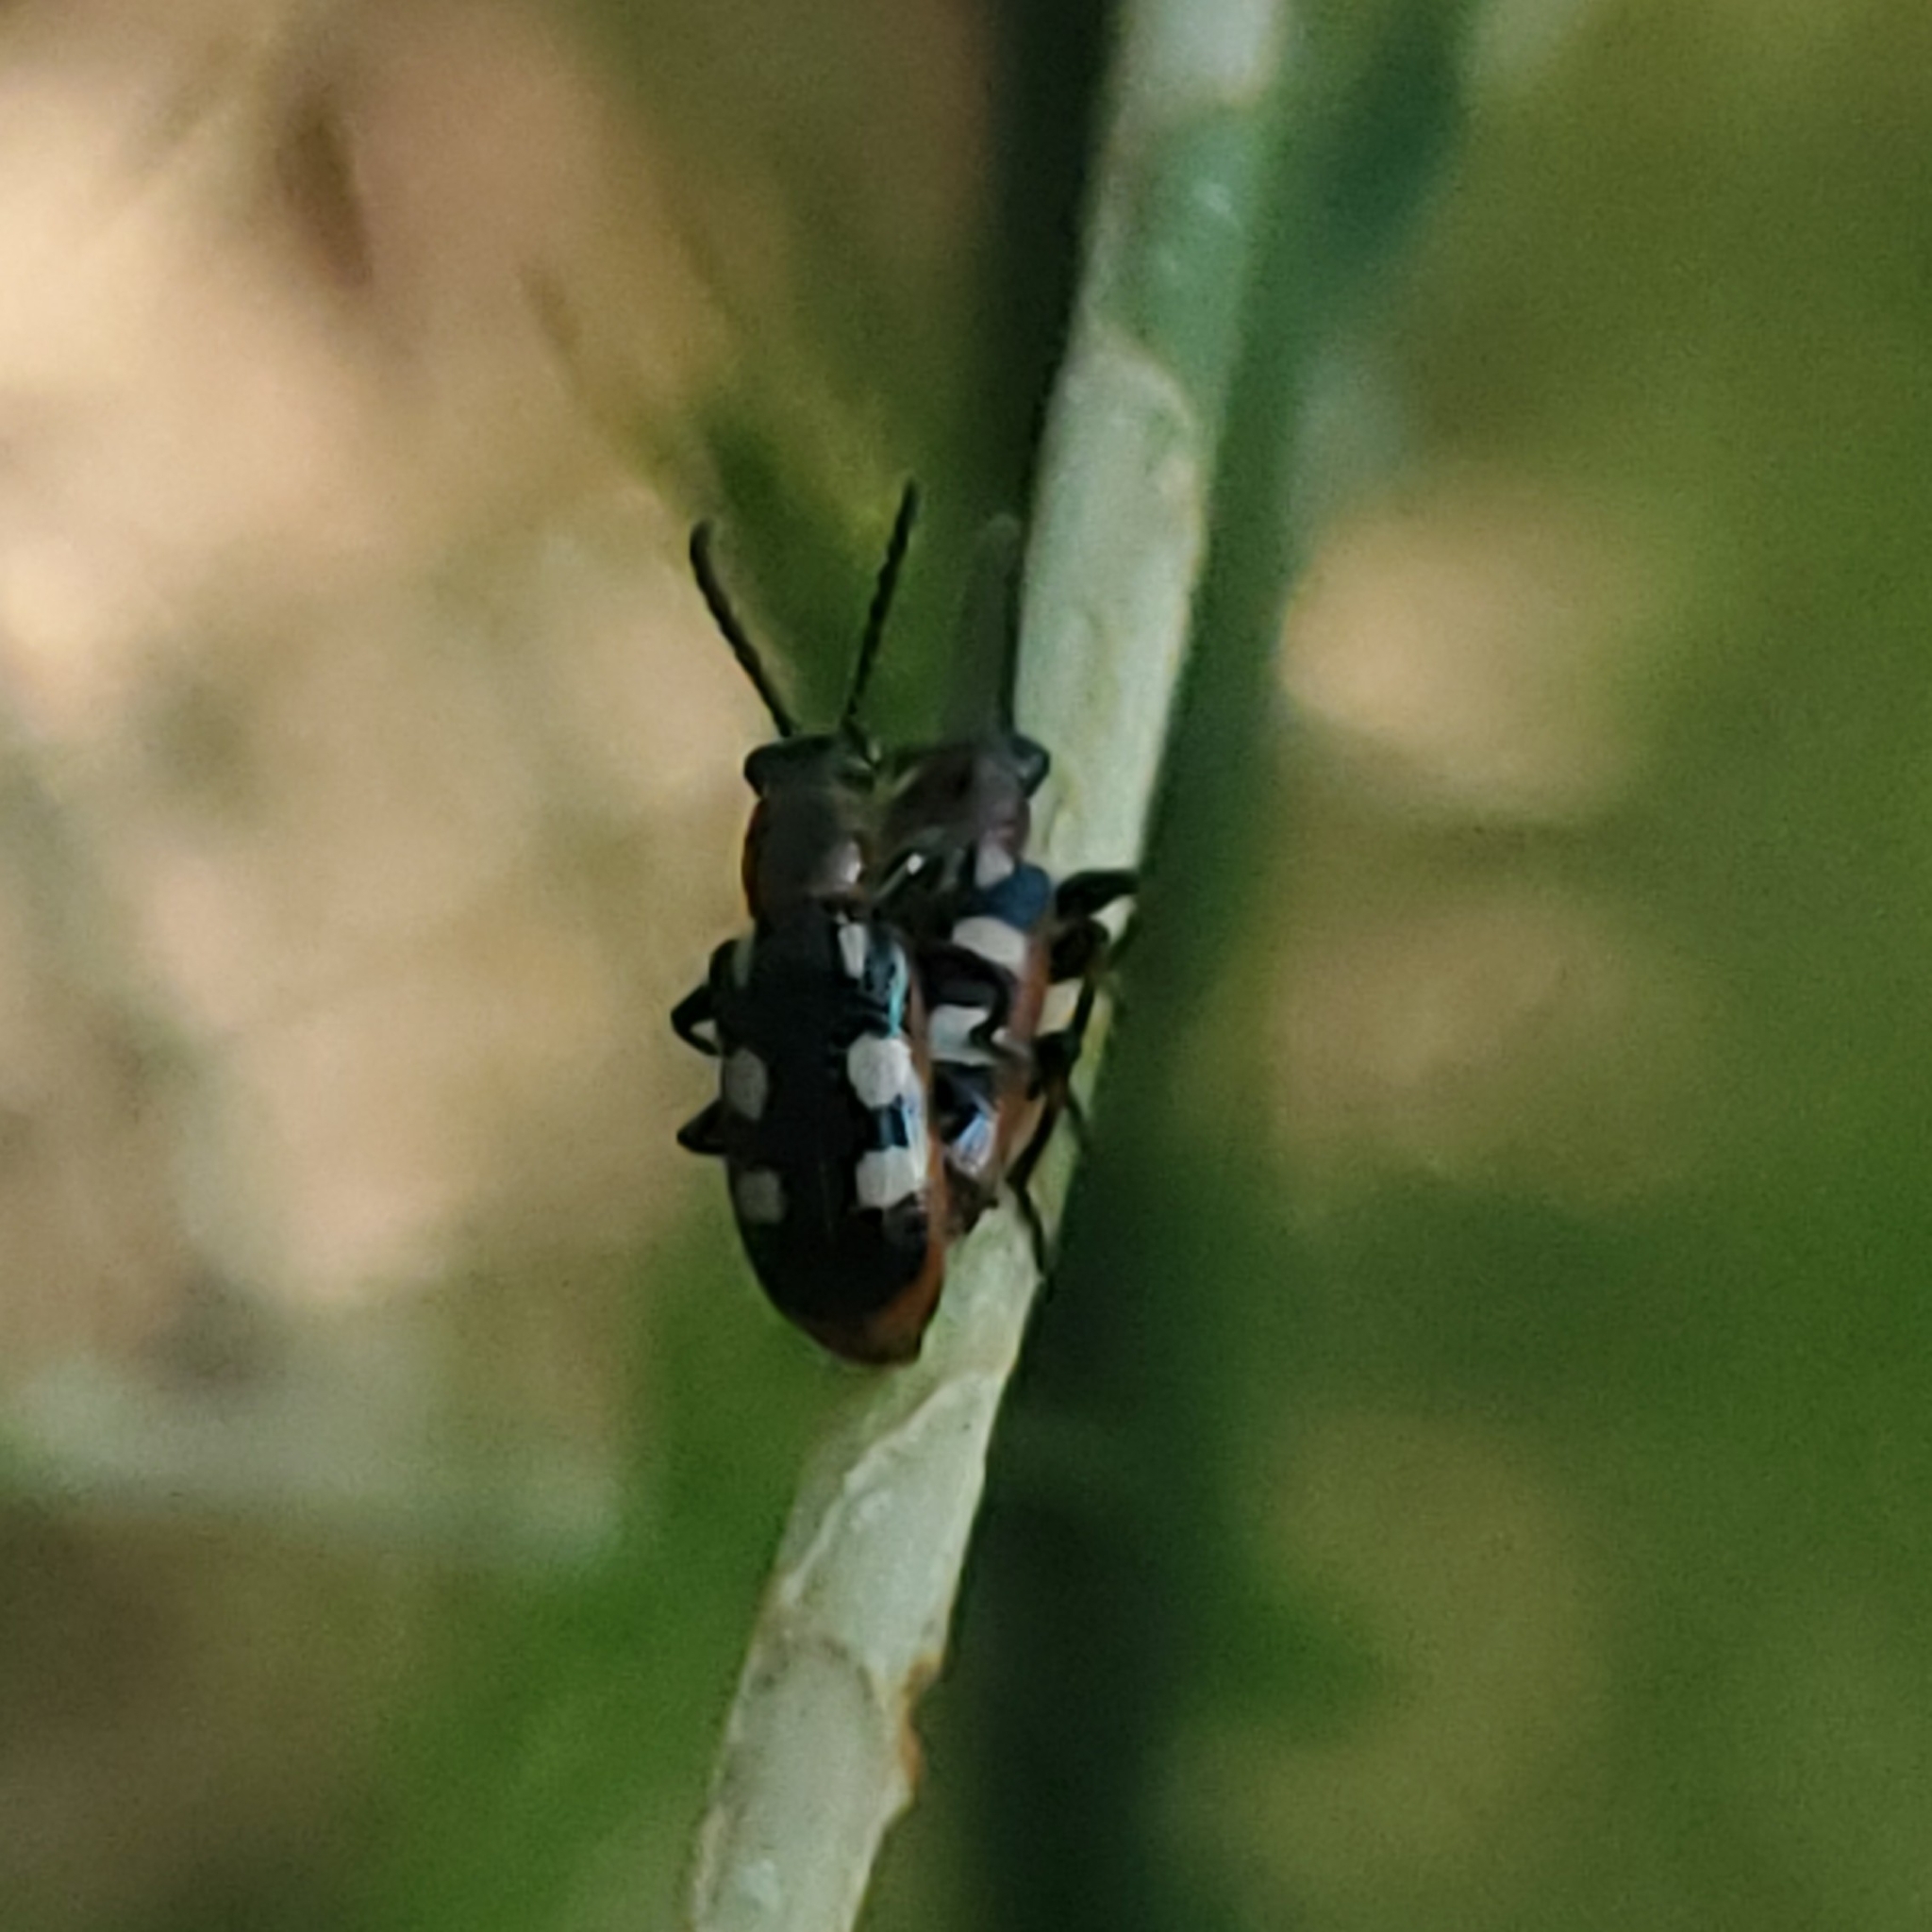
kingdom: Animalia
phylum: Arthropoda
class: Insecta
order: Coleoptera
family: Chrysomelidae
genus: Crioceris
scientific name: Crioceris asparagi
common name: Asparagus beetle
